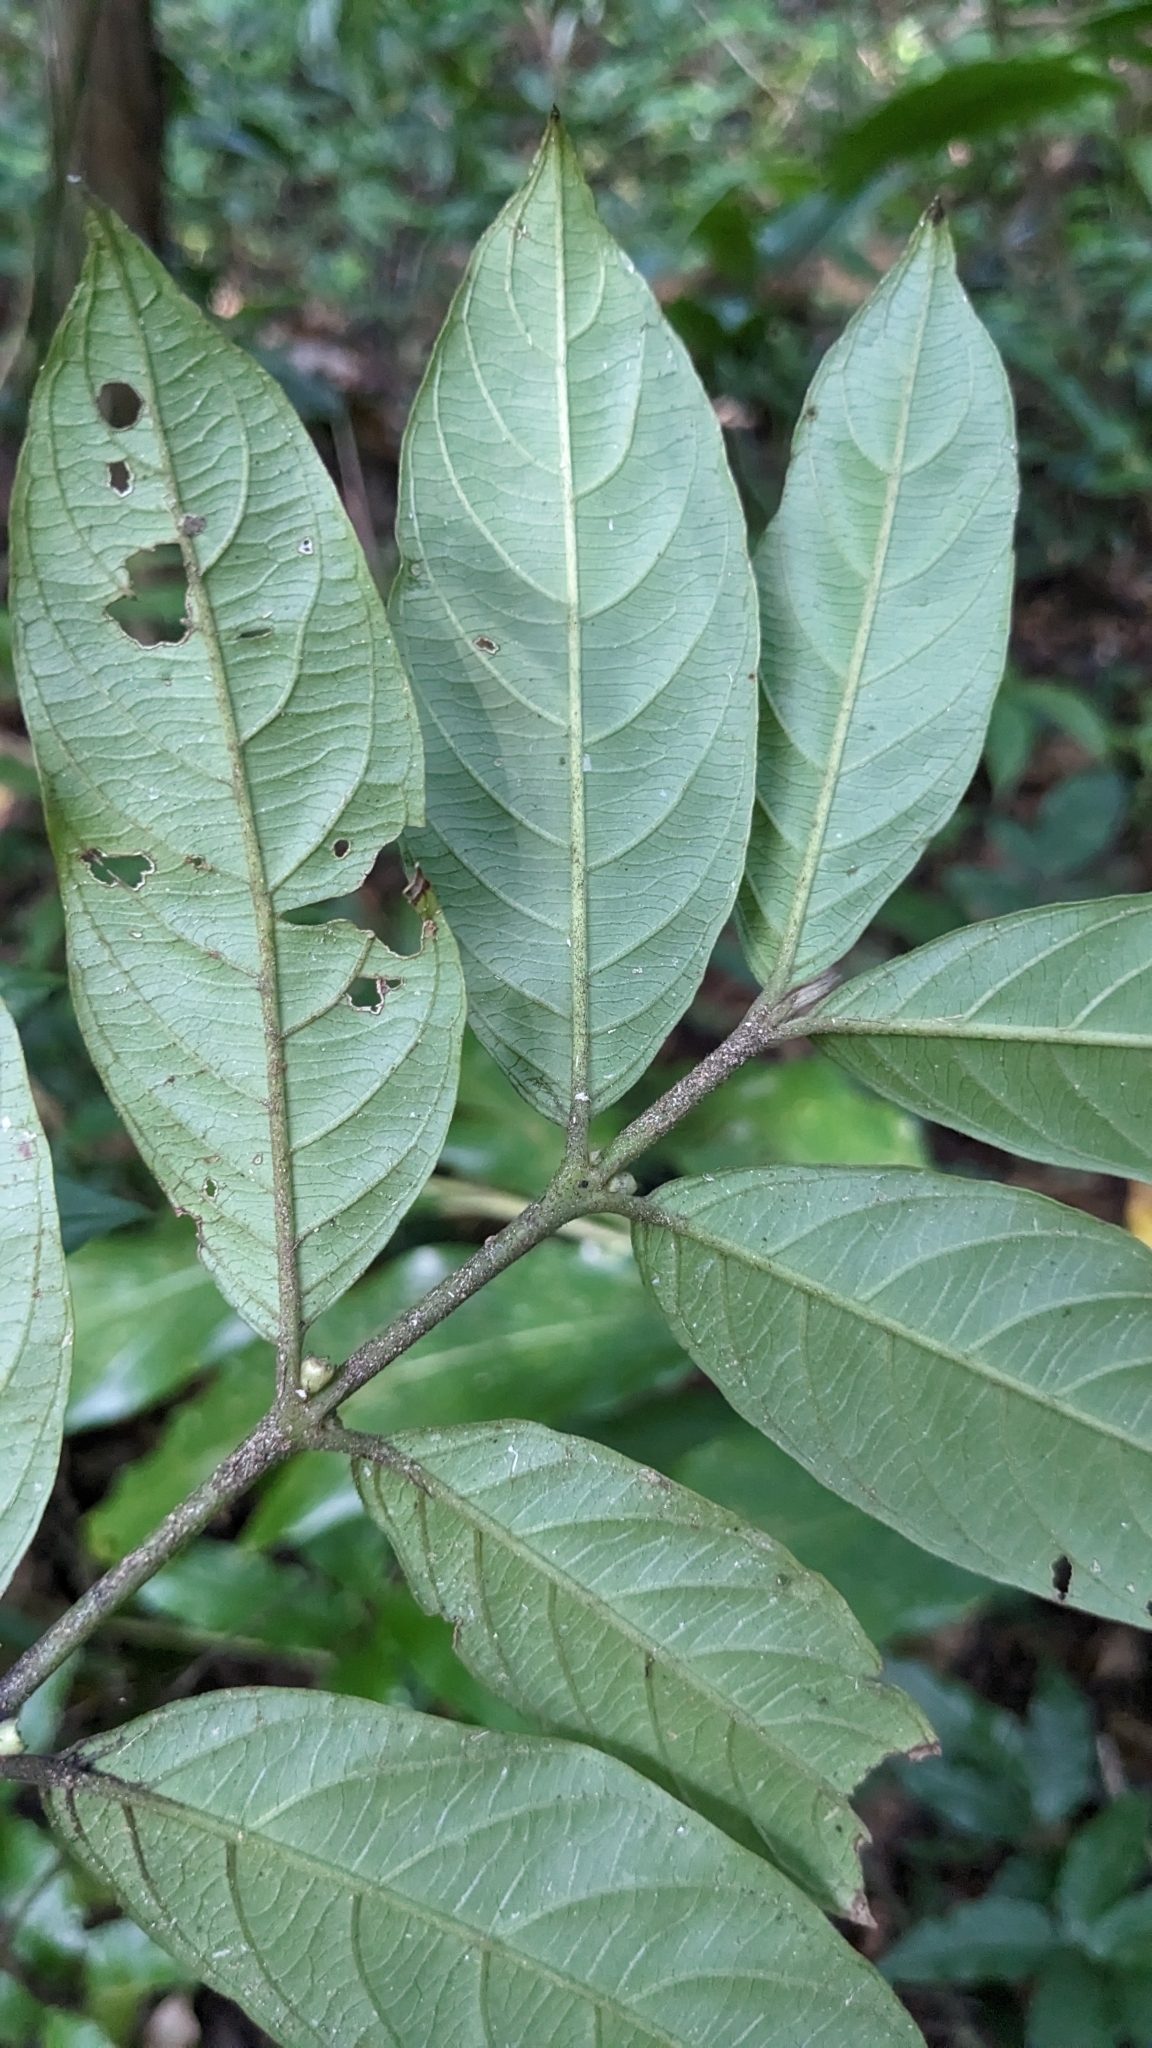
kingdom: Plantae
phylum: Tracheophyta
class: Magnoliopsida
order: Gentianales
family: Rubiaceae
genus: Lasianthus
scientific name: Lasianthus fordii
